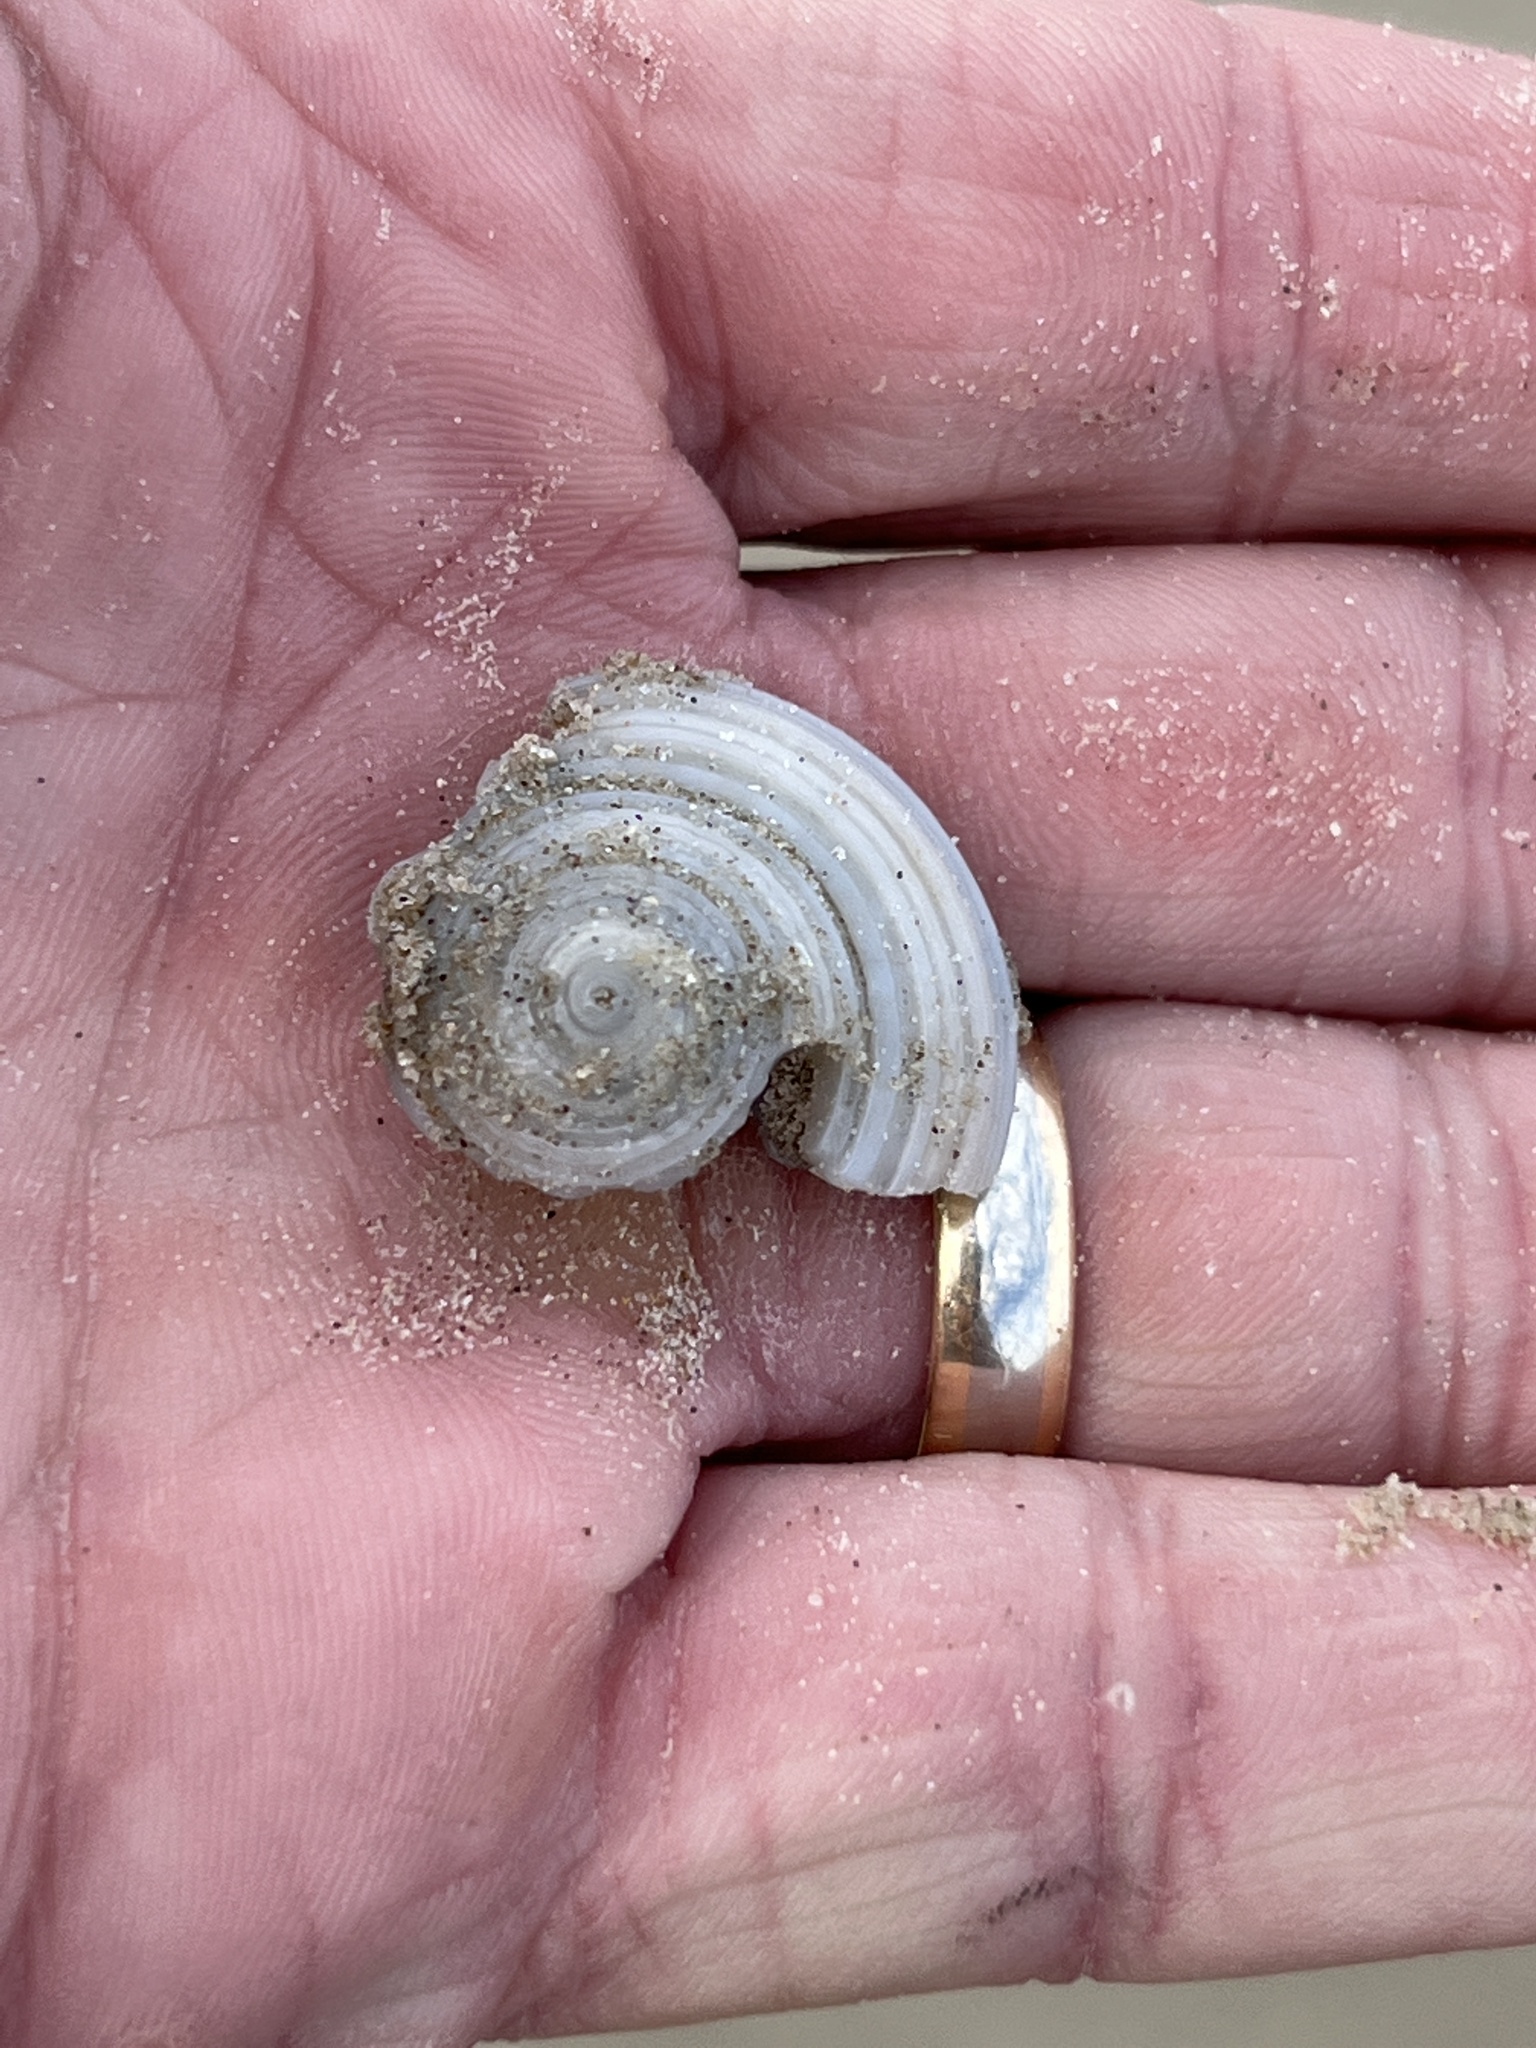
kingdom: Animalia
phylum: Mollusca
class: Gastropoda
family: Architectonicidae
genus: Architectonica
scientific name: Architectonica nobilis
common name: Common sundial
